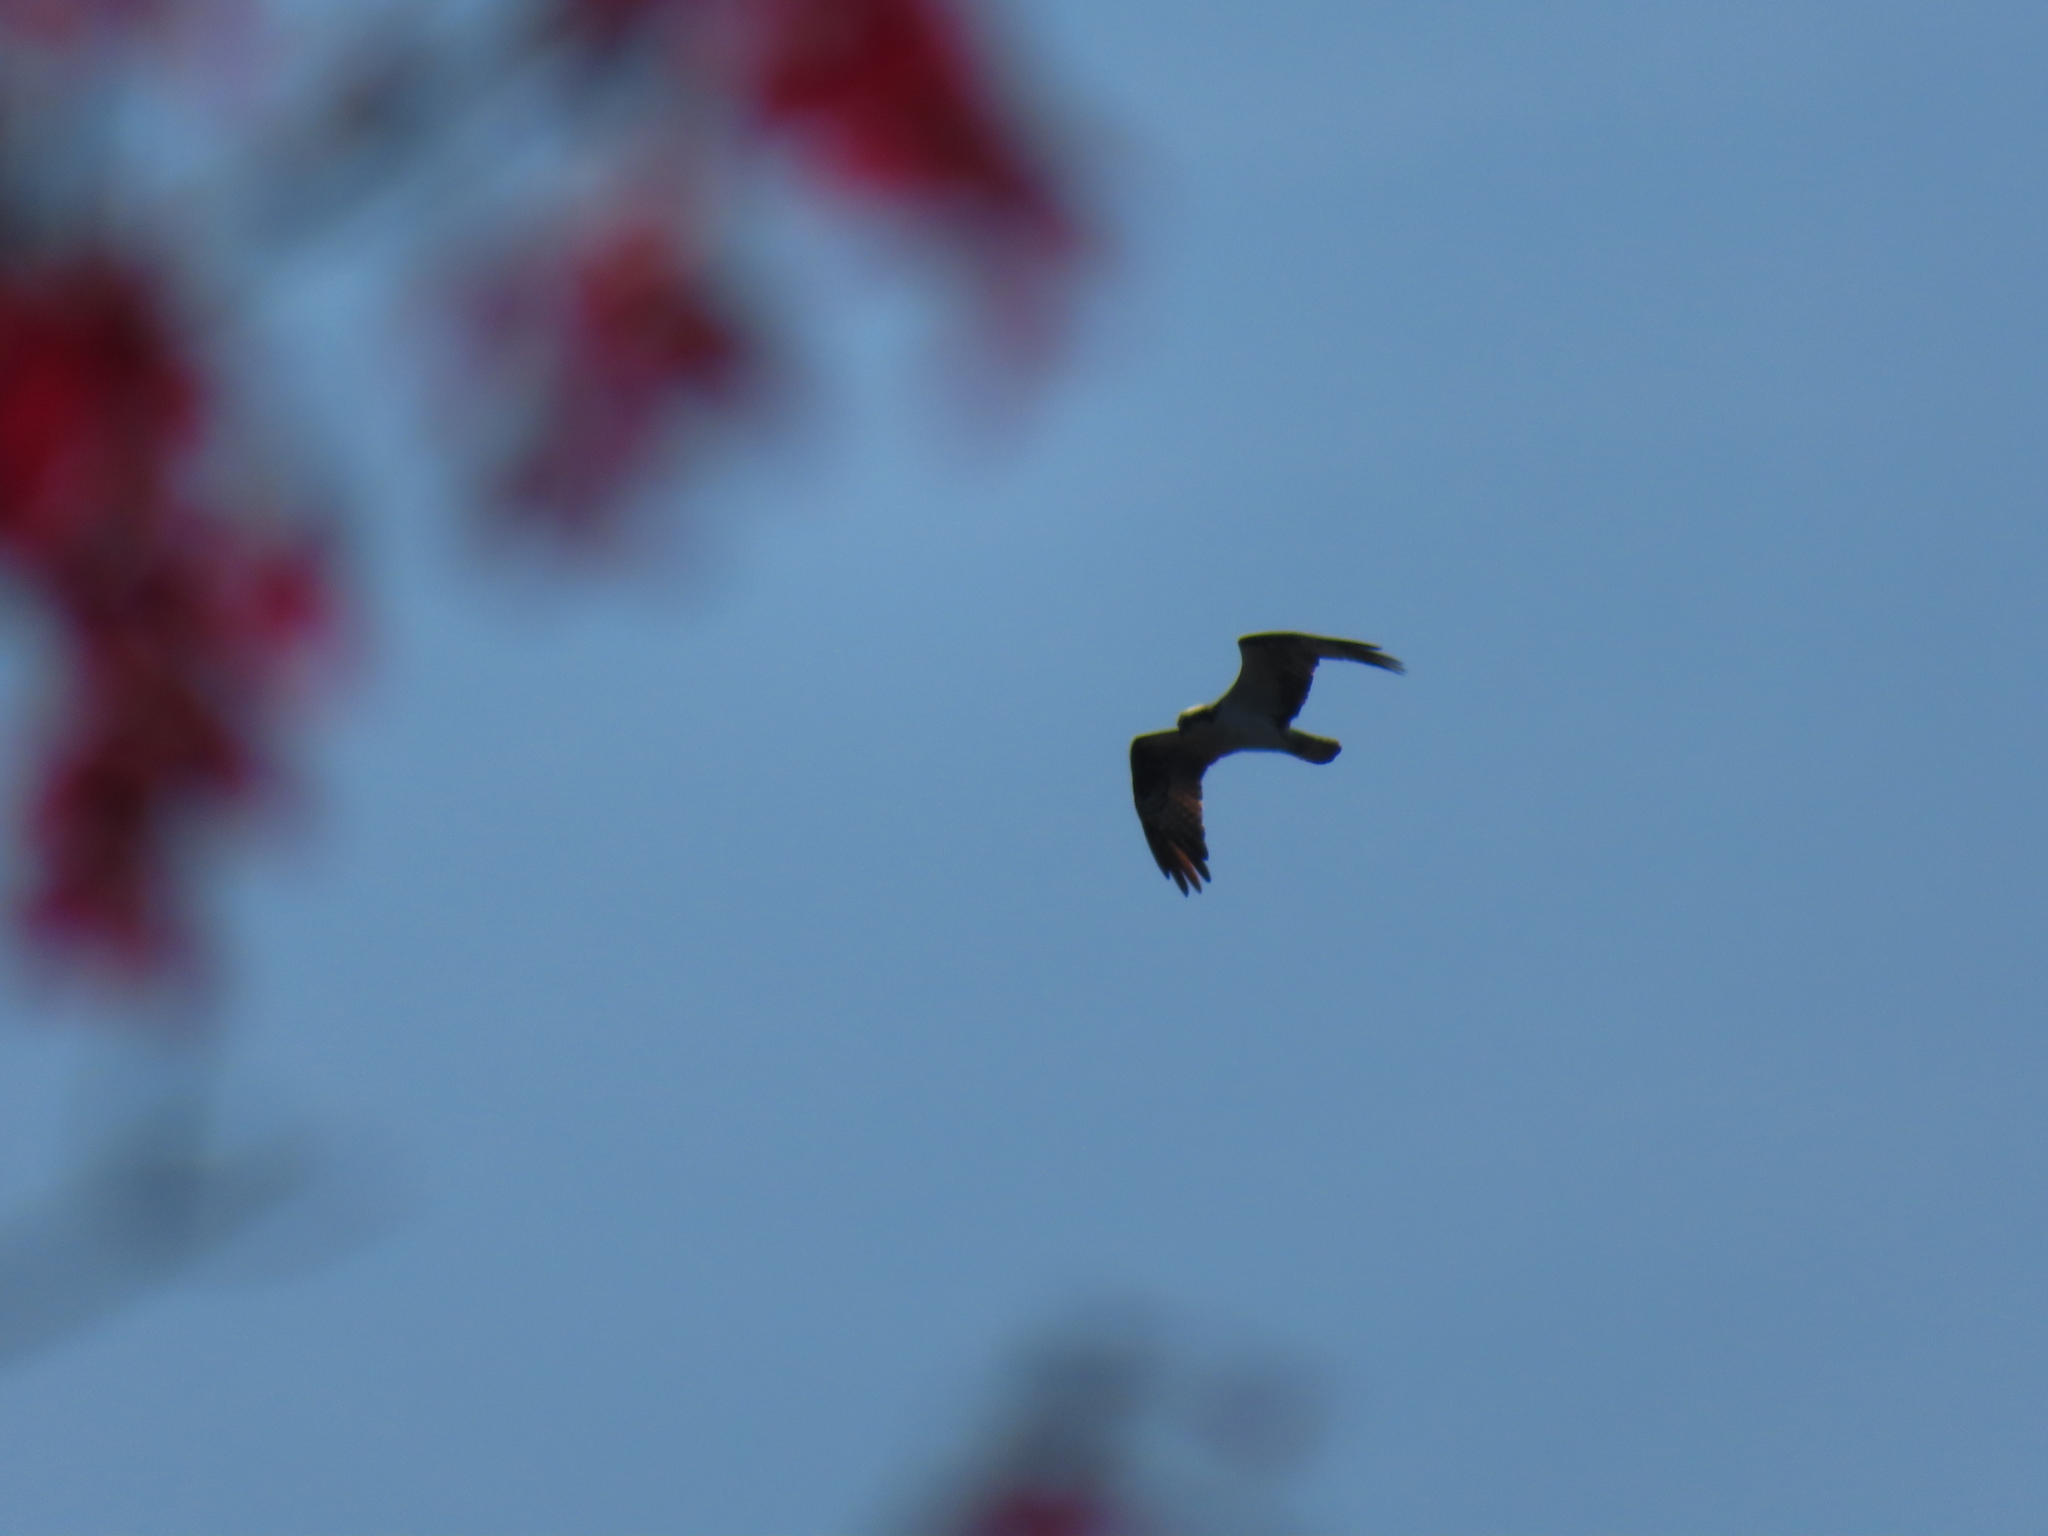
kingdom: Animalia
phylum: Chordata
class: Aves
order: Accipitriformes
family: Pandionidae
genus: Pandion
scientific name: Pandion haliaetus
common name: Osprey
